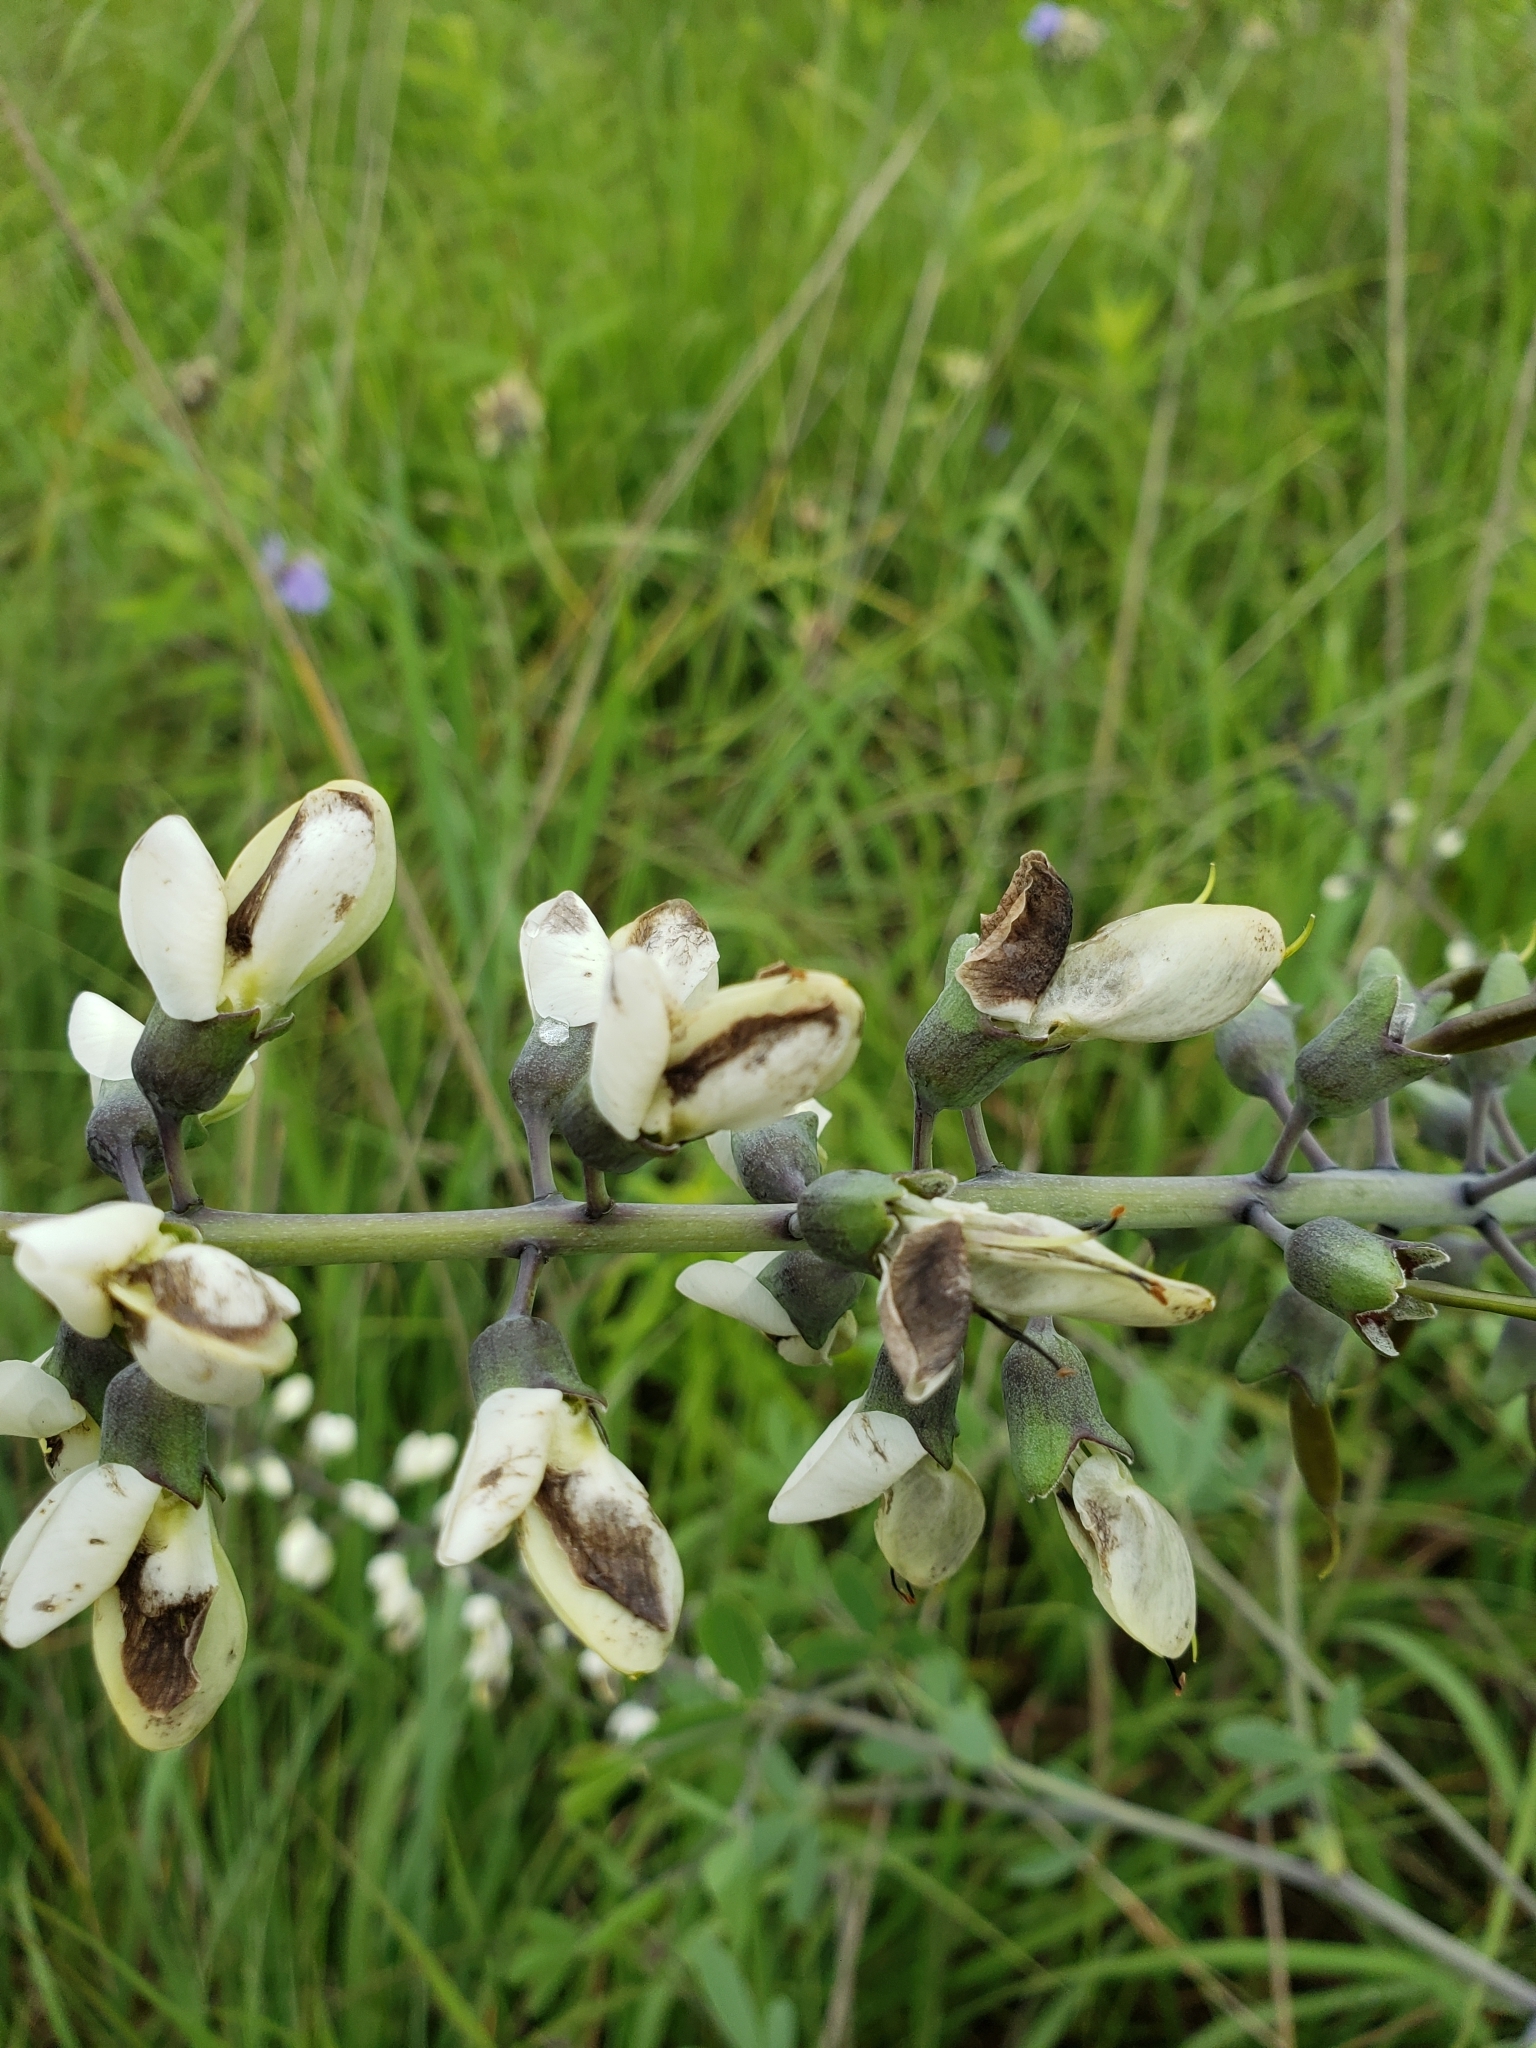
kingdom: Plantae
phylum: Tracheophyta
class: Magnoliopsida
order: Fabales
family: Fabaceae
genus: Baptisia
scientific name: Baptisia alba
